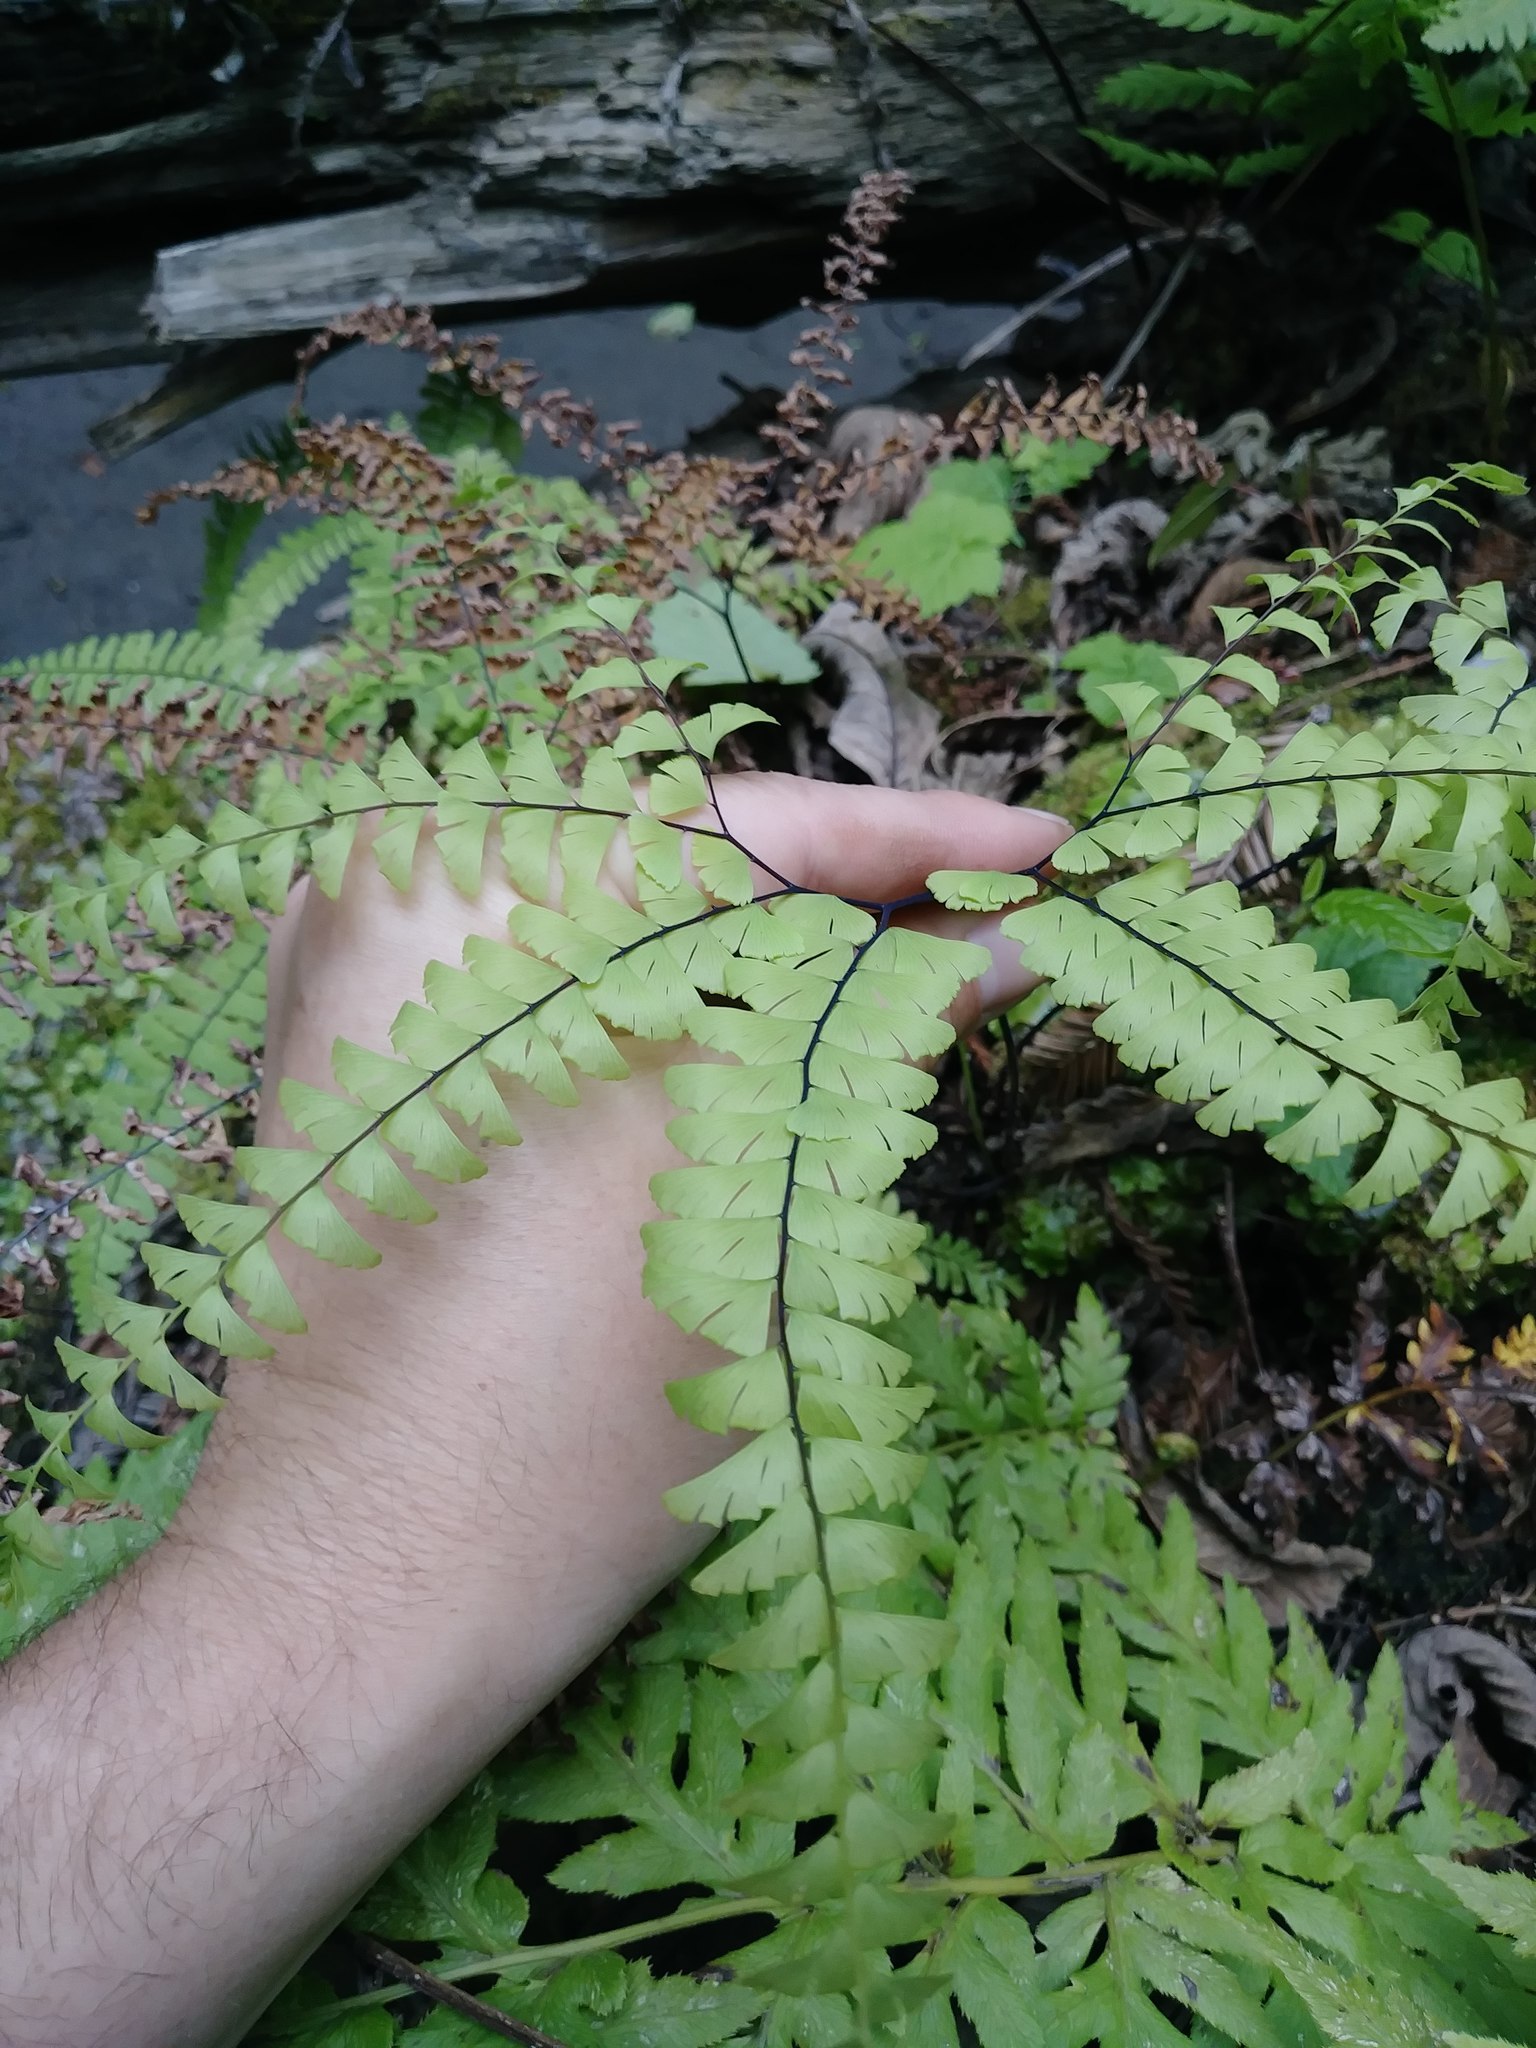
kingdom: Plantae
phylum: Tracheophyta
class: Polypodiopsida
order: Polypodiales
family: Pteridaceae
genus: Adiantum
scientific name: Adiantum aleuticum
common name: Aleutian maidenhair fern
